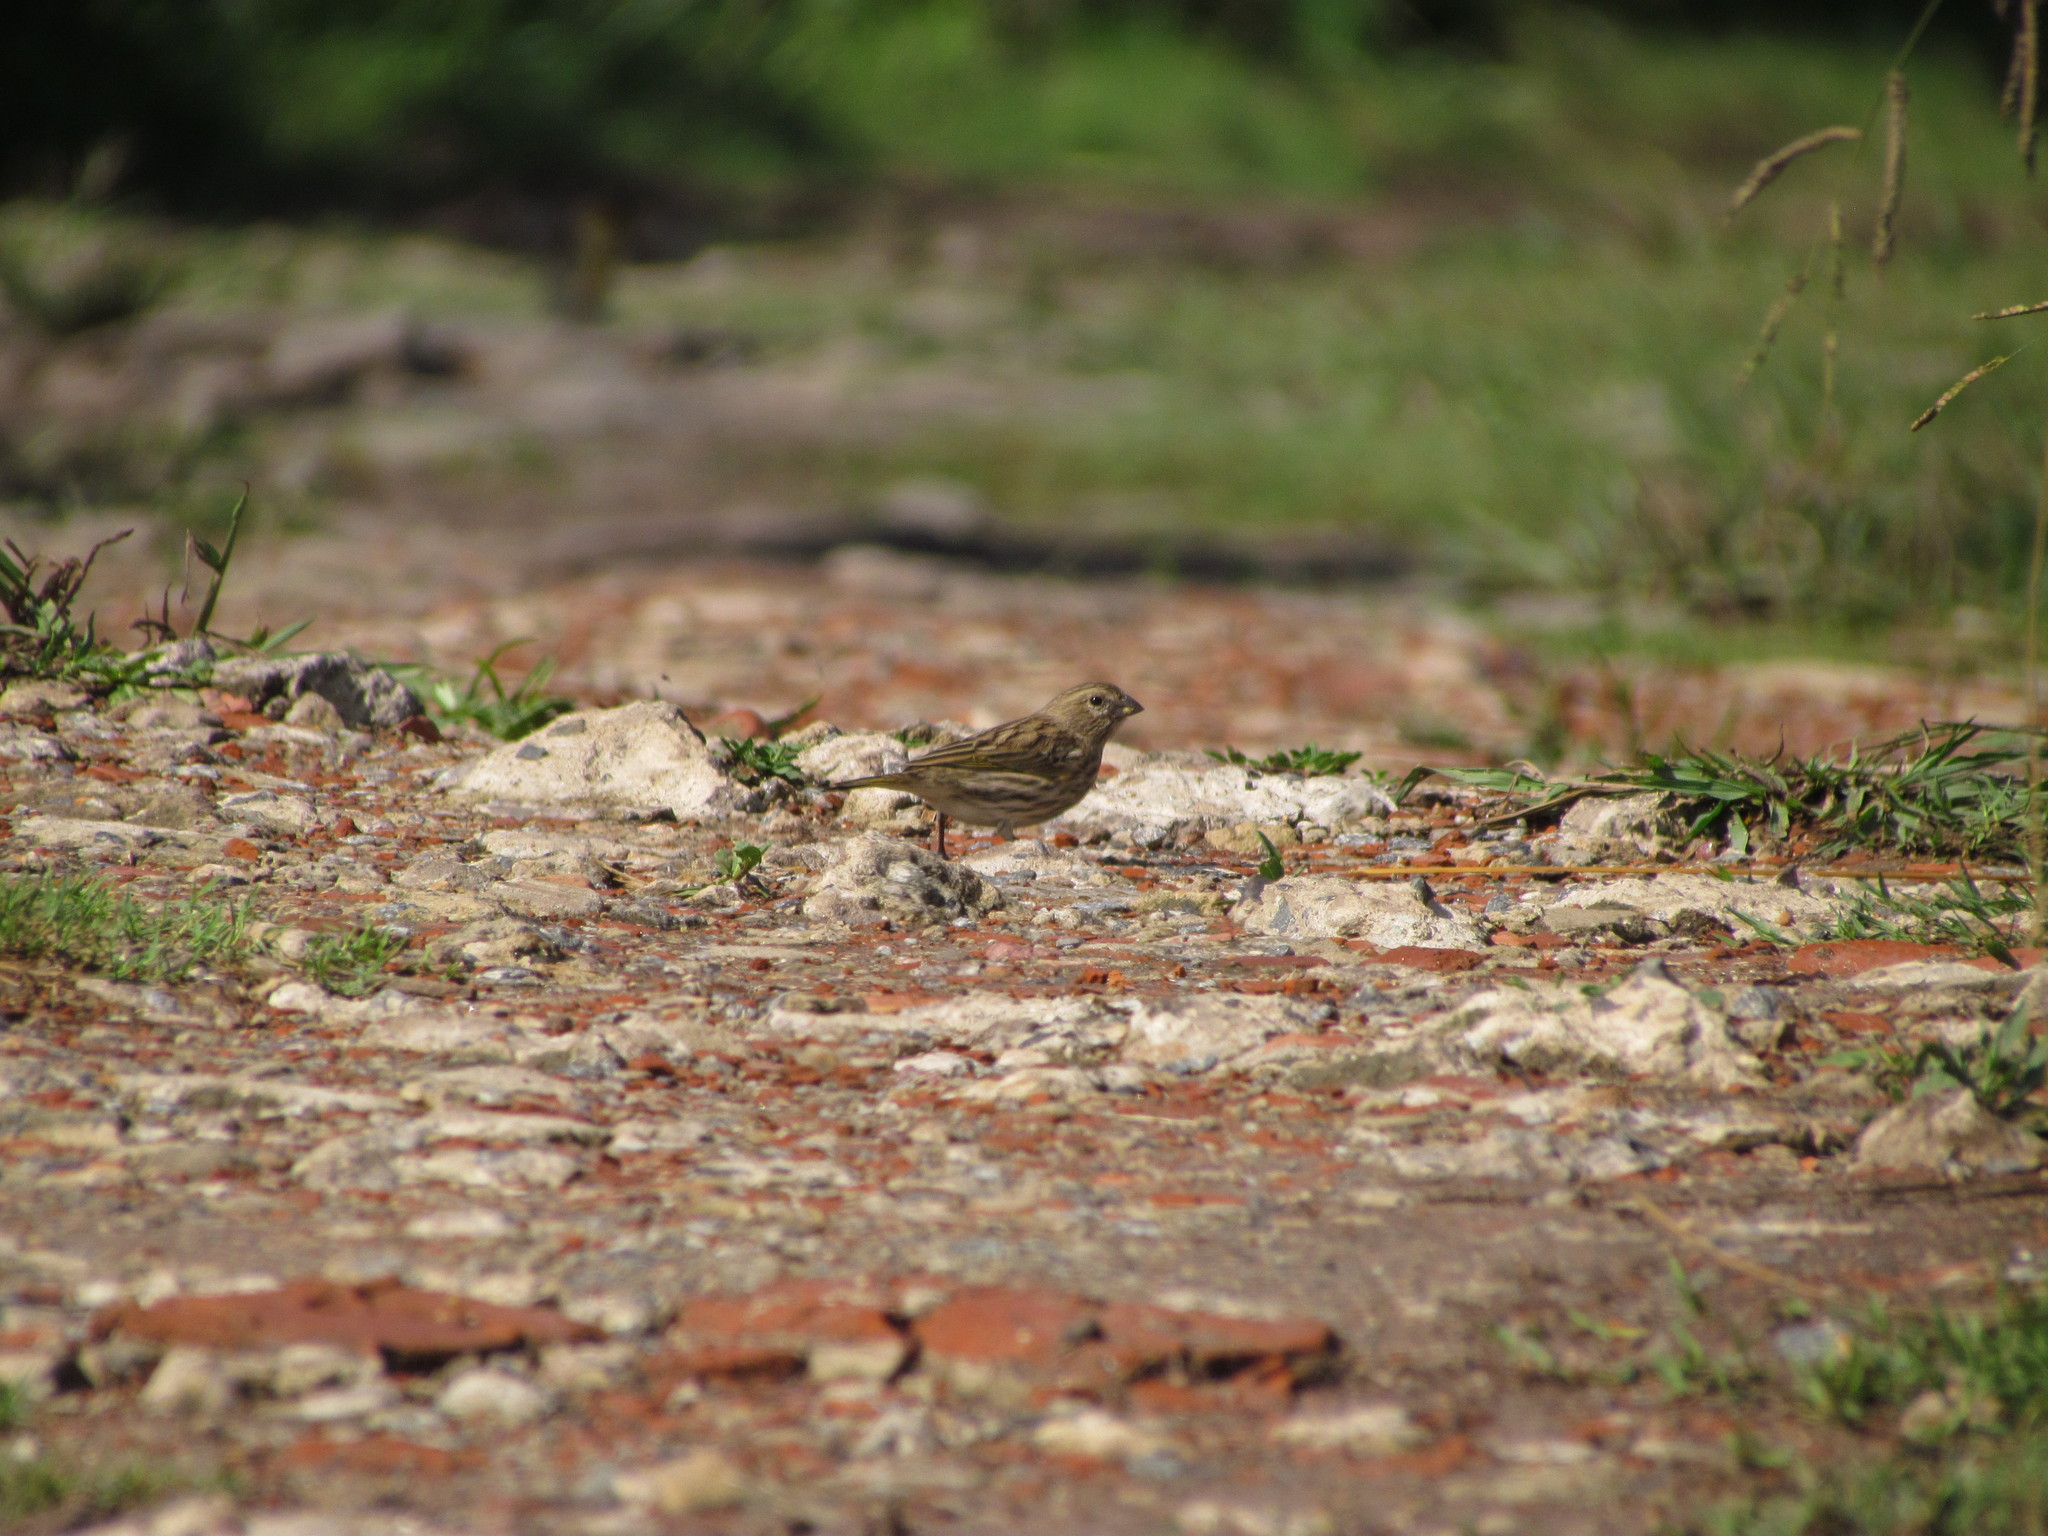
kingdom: Animalia
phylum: Chordata
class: Aves
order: Passeriformes
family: Thraupidae
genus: Sicalis
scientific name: Sicalis flaveola
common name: Saffron finch
